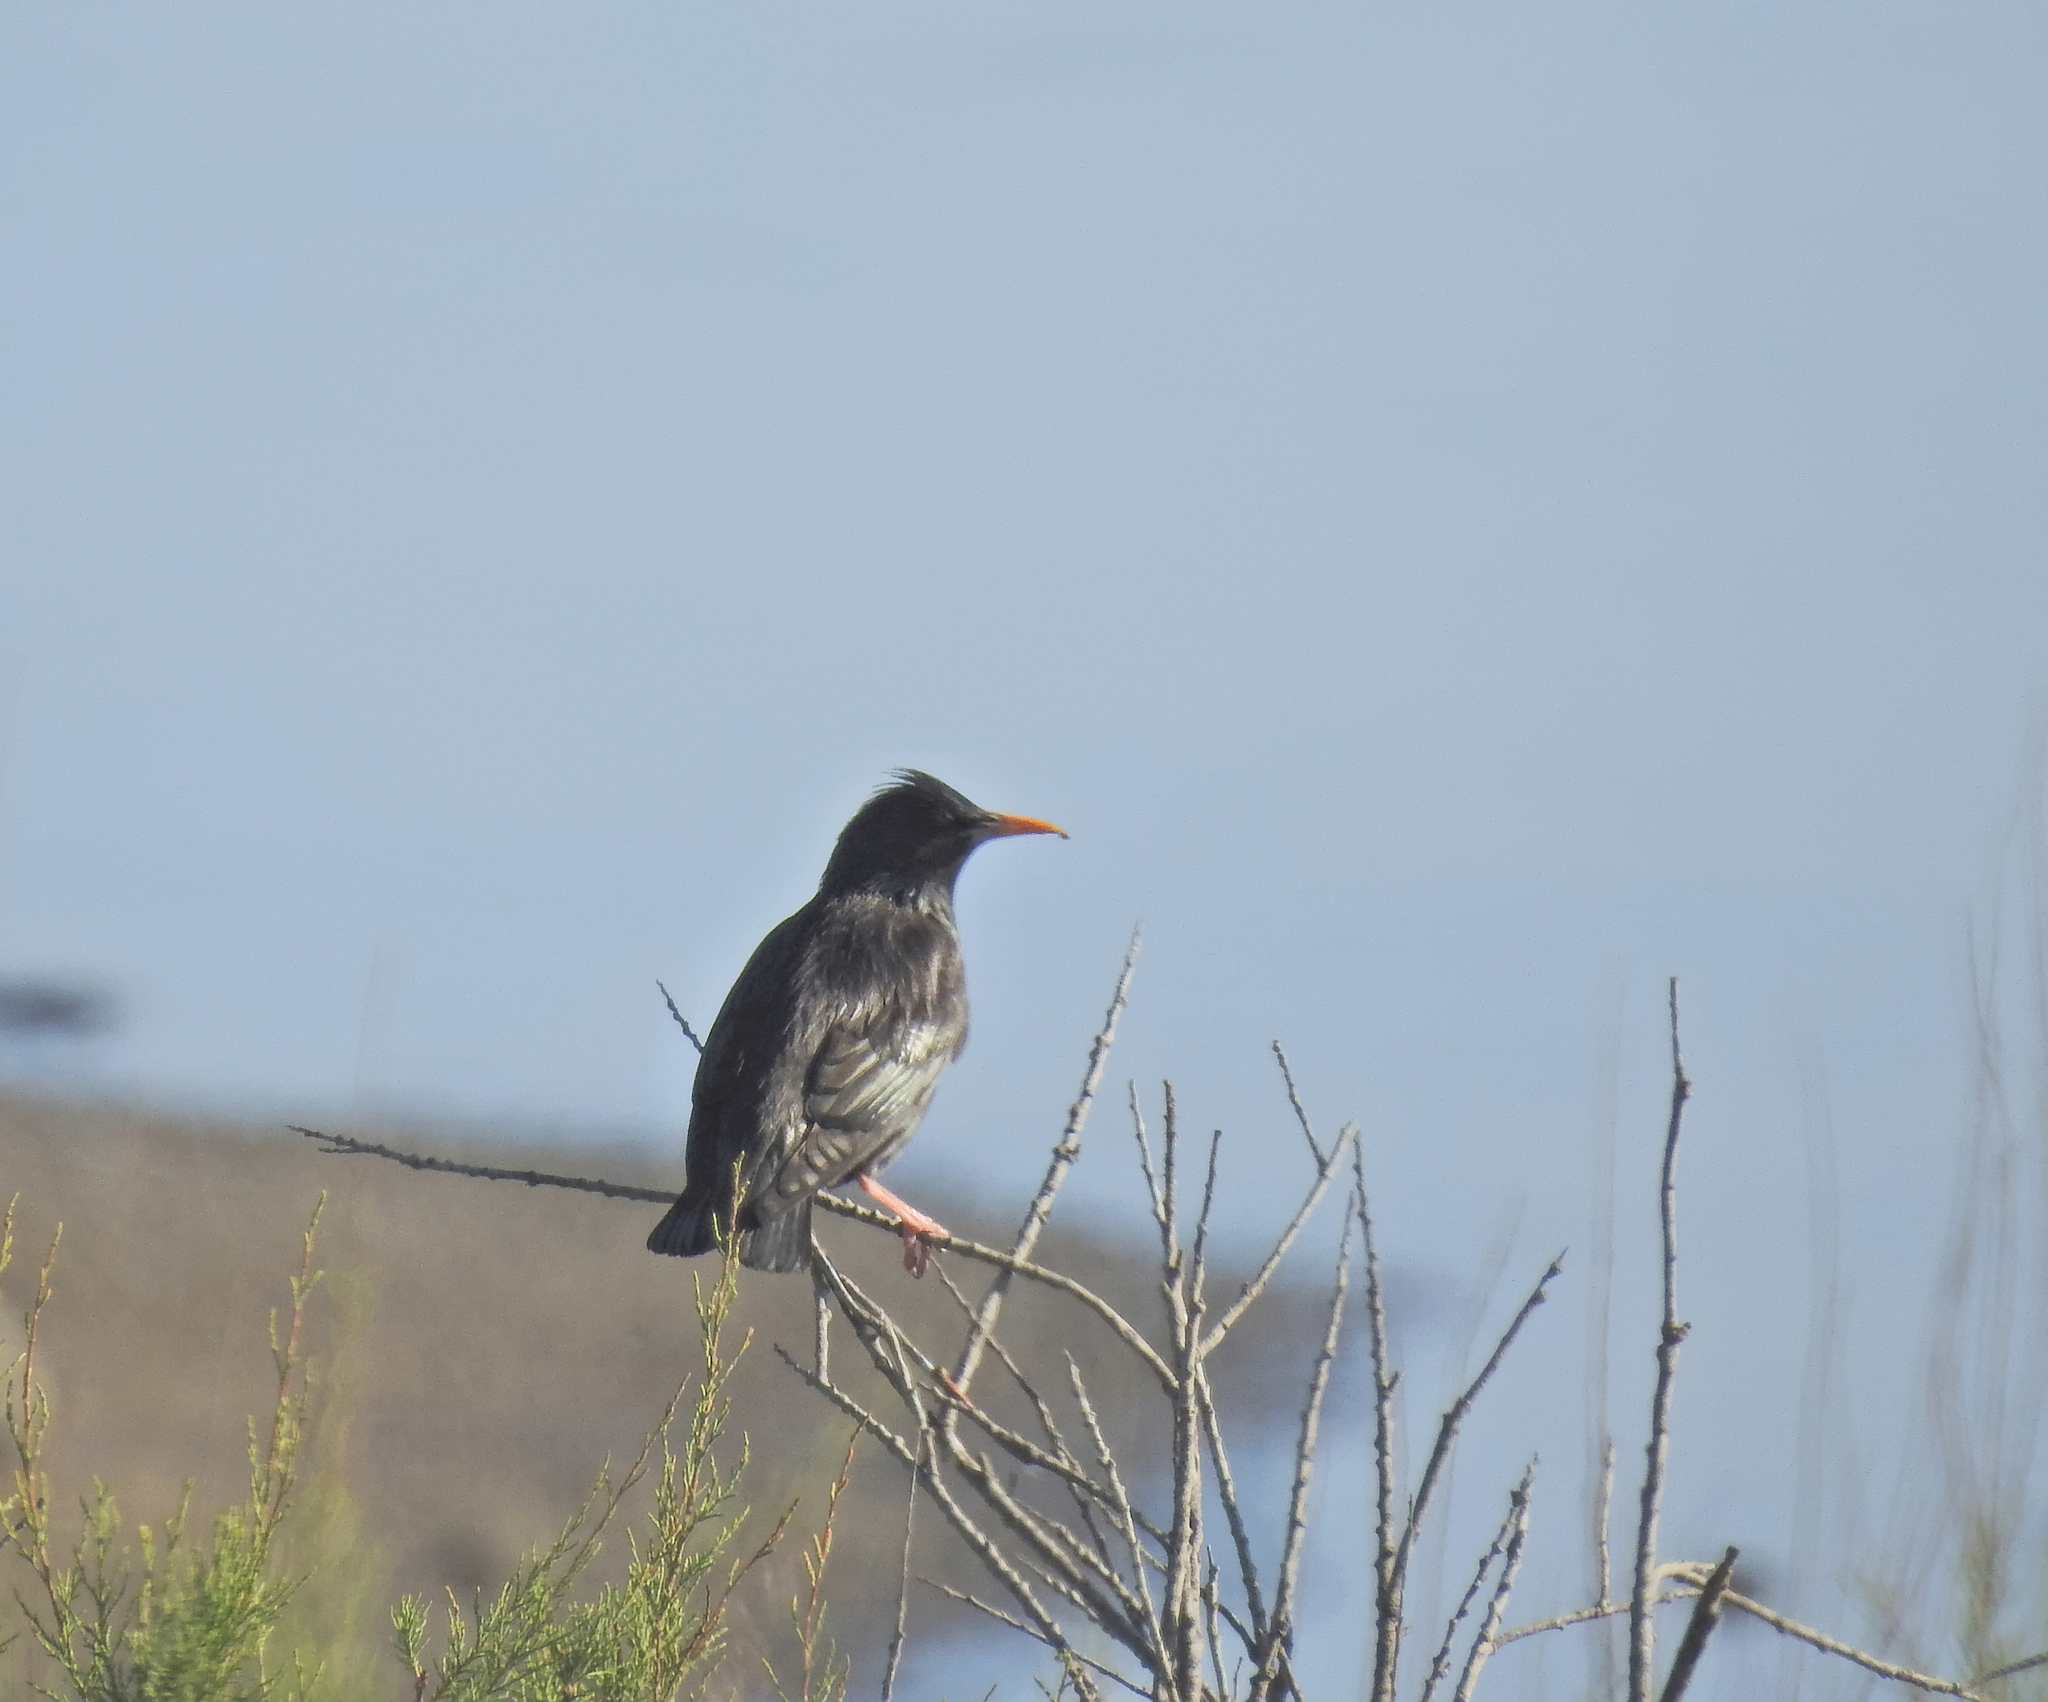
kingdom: Animalia
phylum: Chordata
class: Aves
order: Passeriformes
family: Sturnidae
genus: Sturnus
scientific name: Sturnus unicolor
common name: Spotless starling
